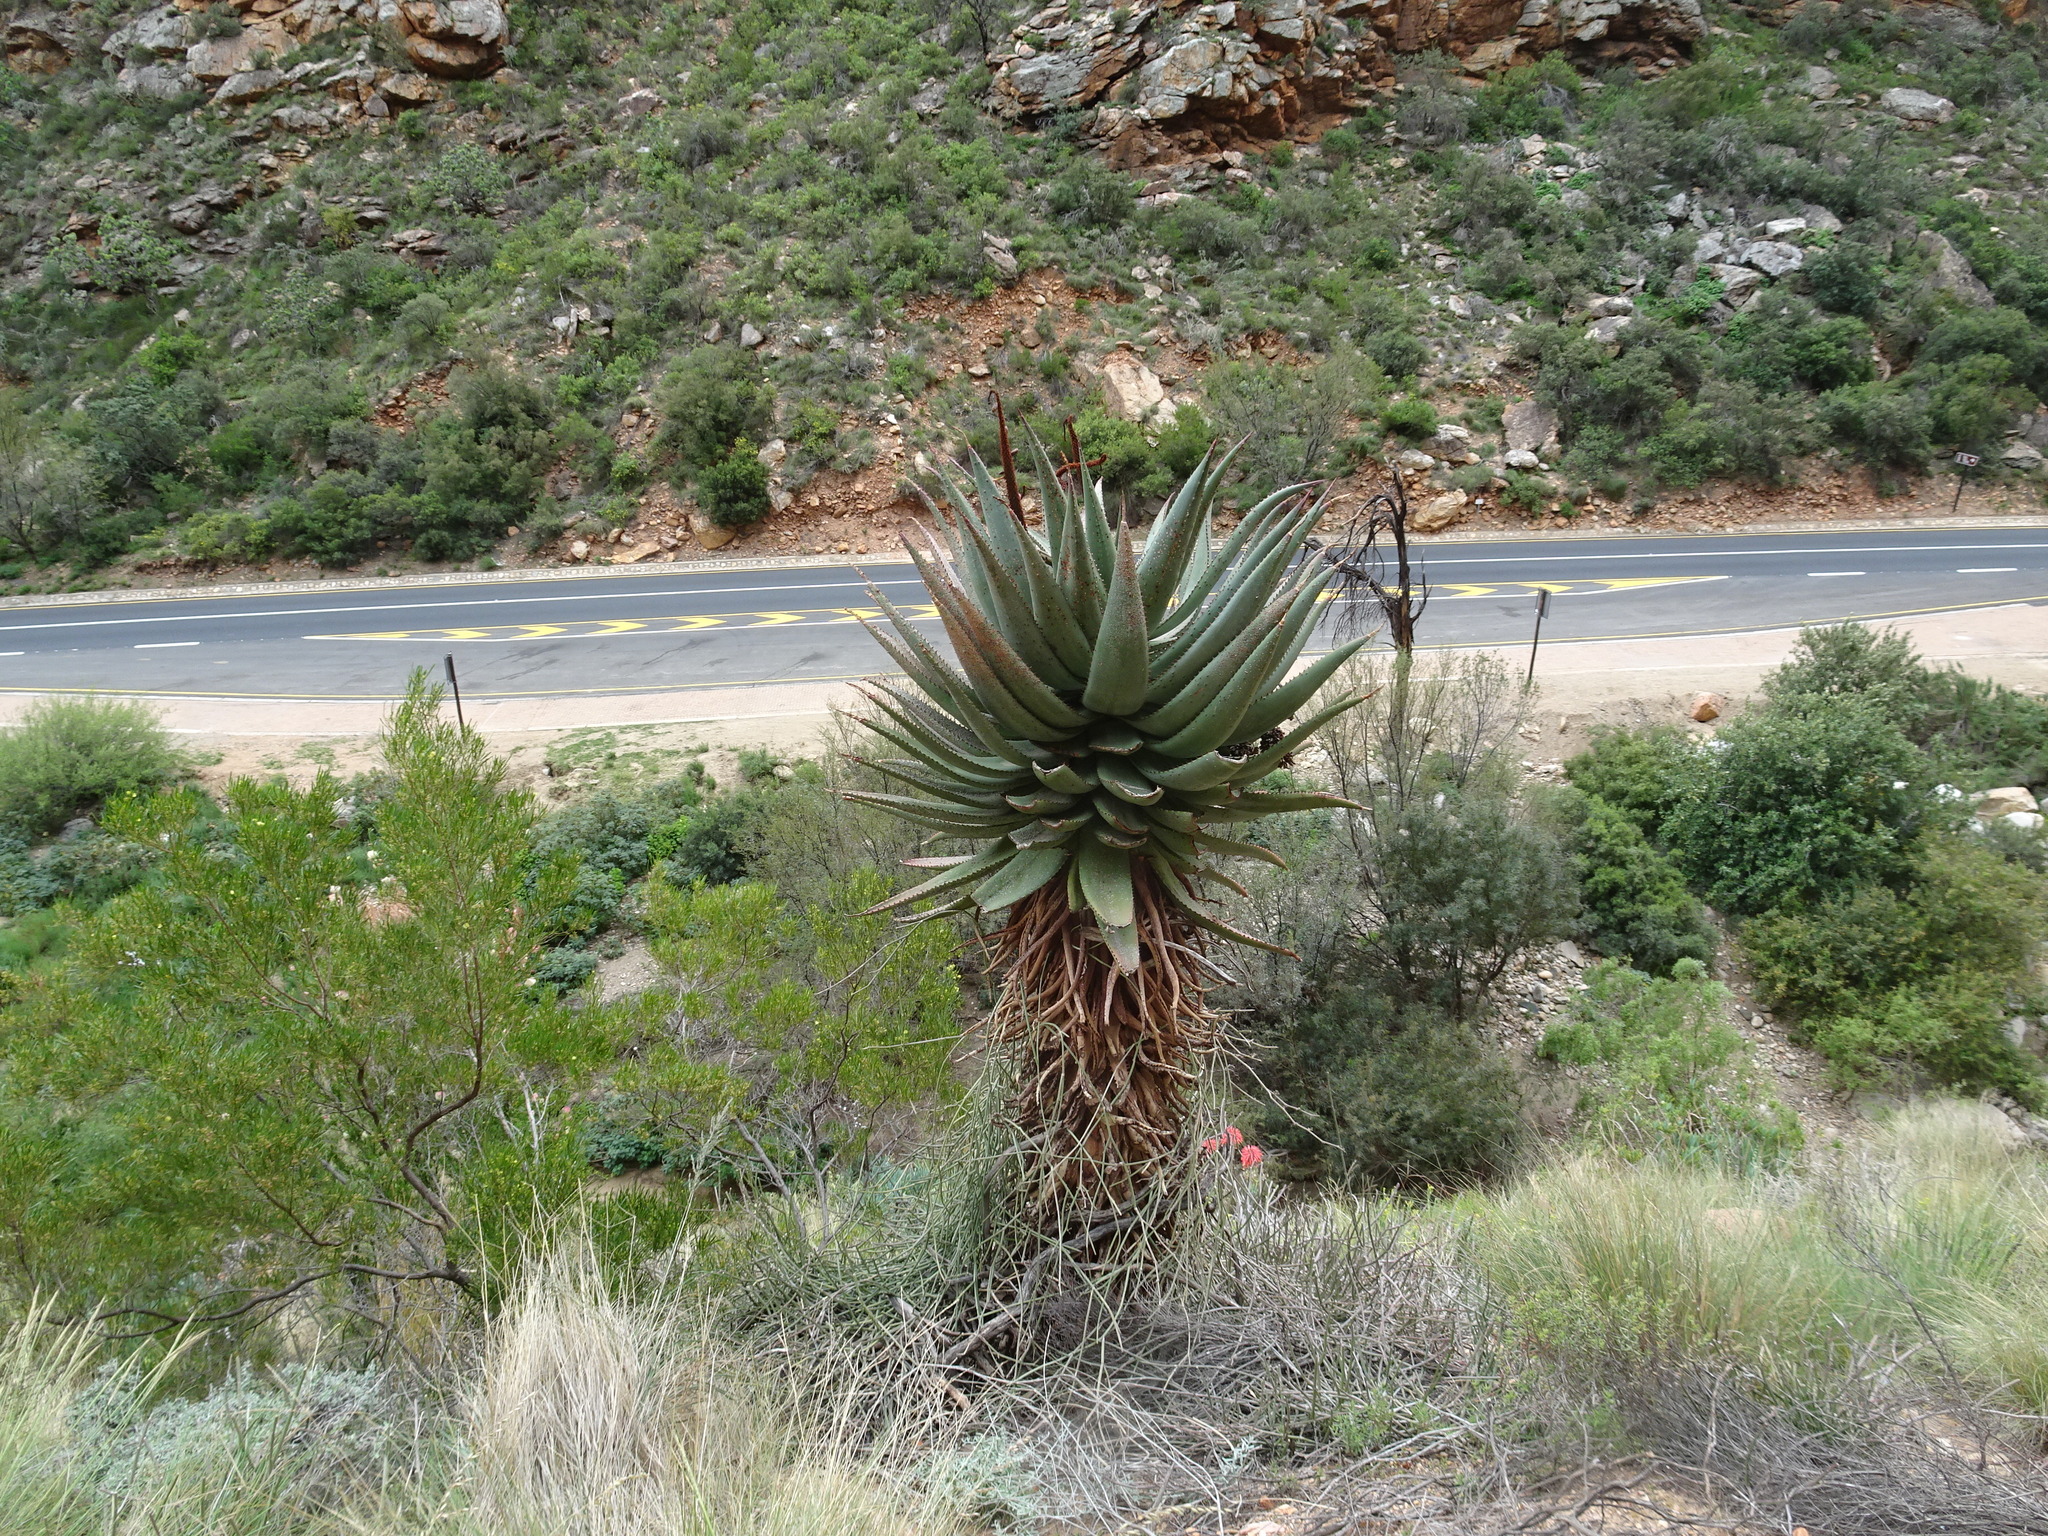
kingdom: Plantae
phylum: Tracheophyta
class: Liliopsida
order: Asparagales
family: Asphodelaceae
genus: Aloe
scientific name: Aloe ferox
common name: Bitter aloe
